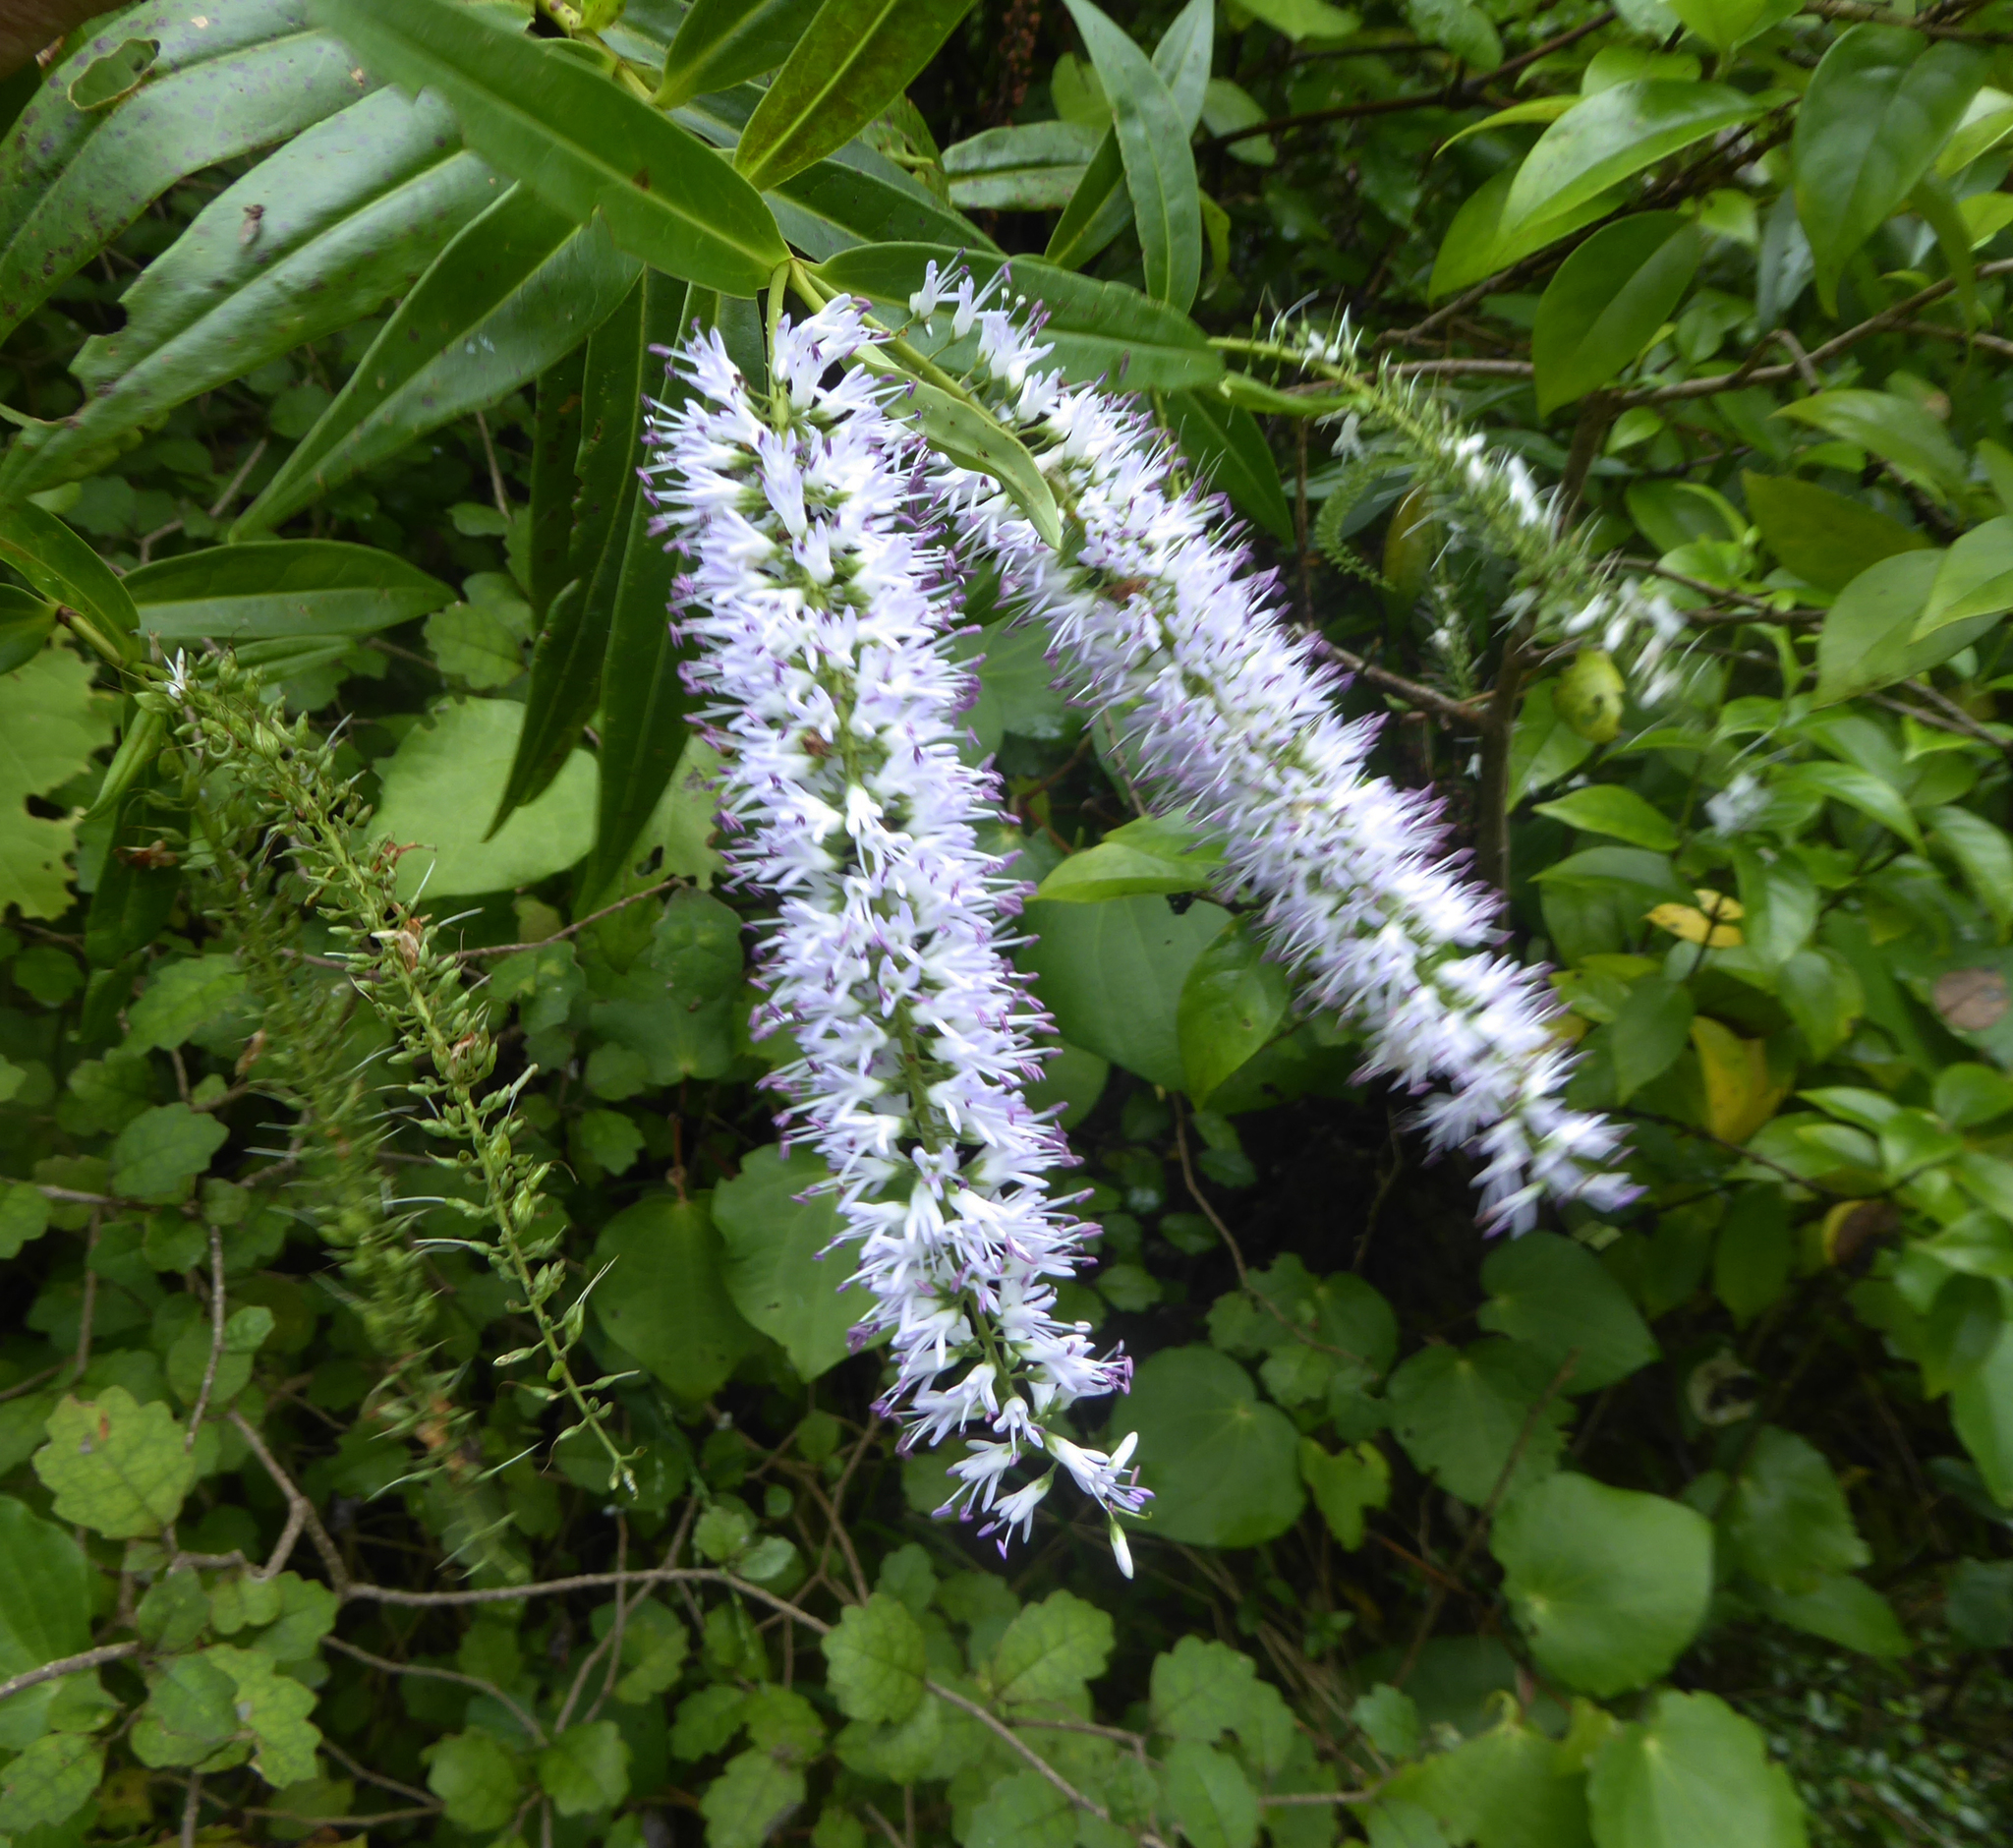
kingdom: Plantae
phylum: Tracheophyta
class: Magnoliopsida
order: Lamiales
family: Plantaginaceae
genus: Veronica
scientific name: Veronica stricta
